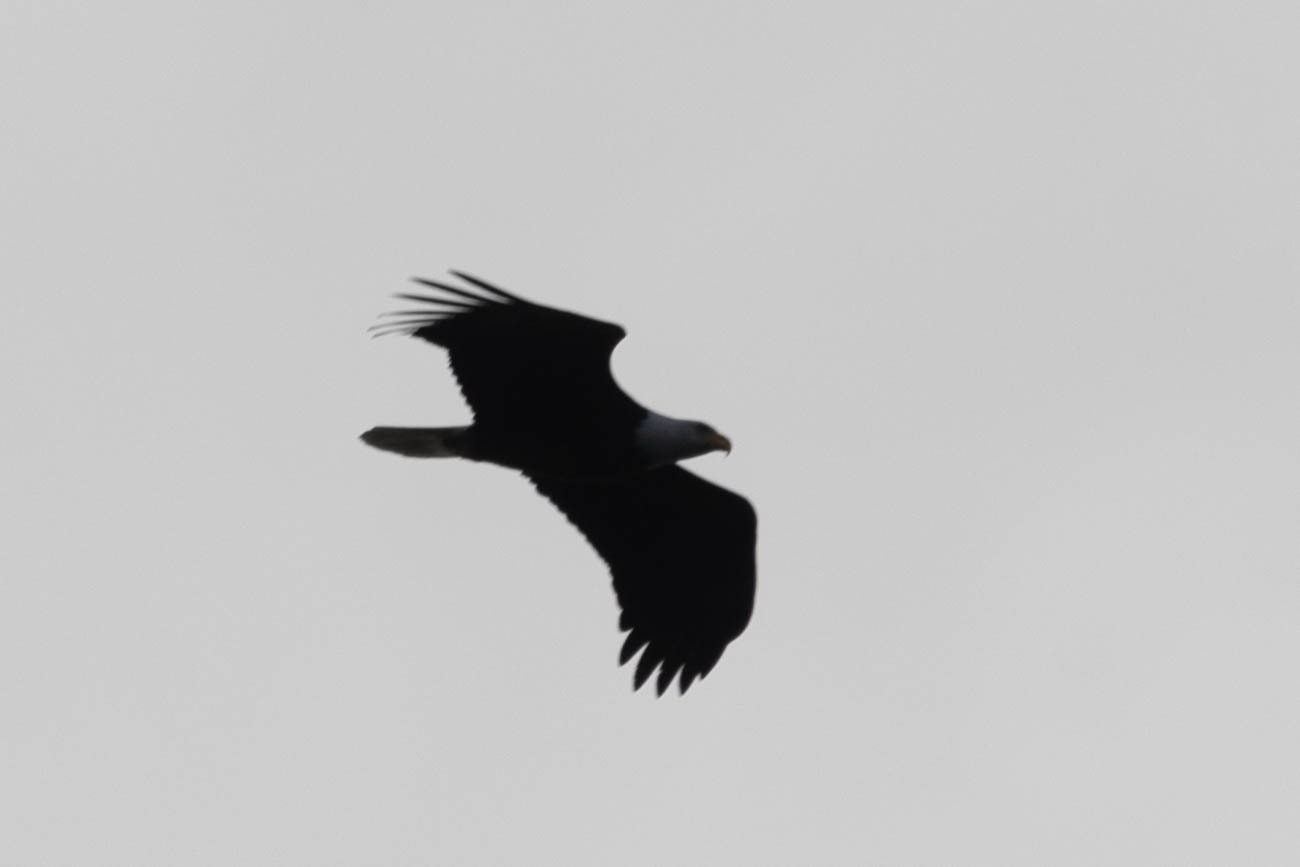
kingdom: Animalia
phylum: Chordata
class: Aves
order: Accipitriformes
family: Accipitridae
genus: Haliaeetus
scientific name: Haliaeetus leucocephalus
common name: Bald eagle
